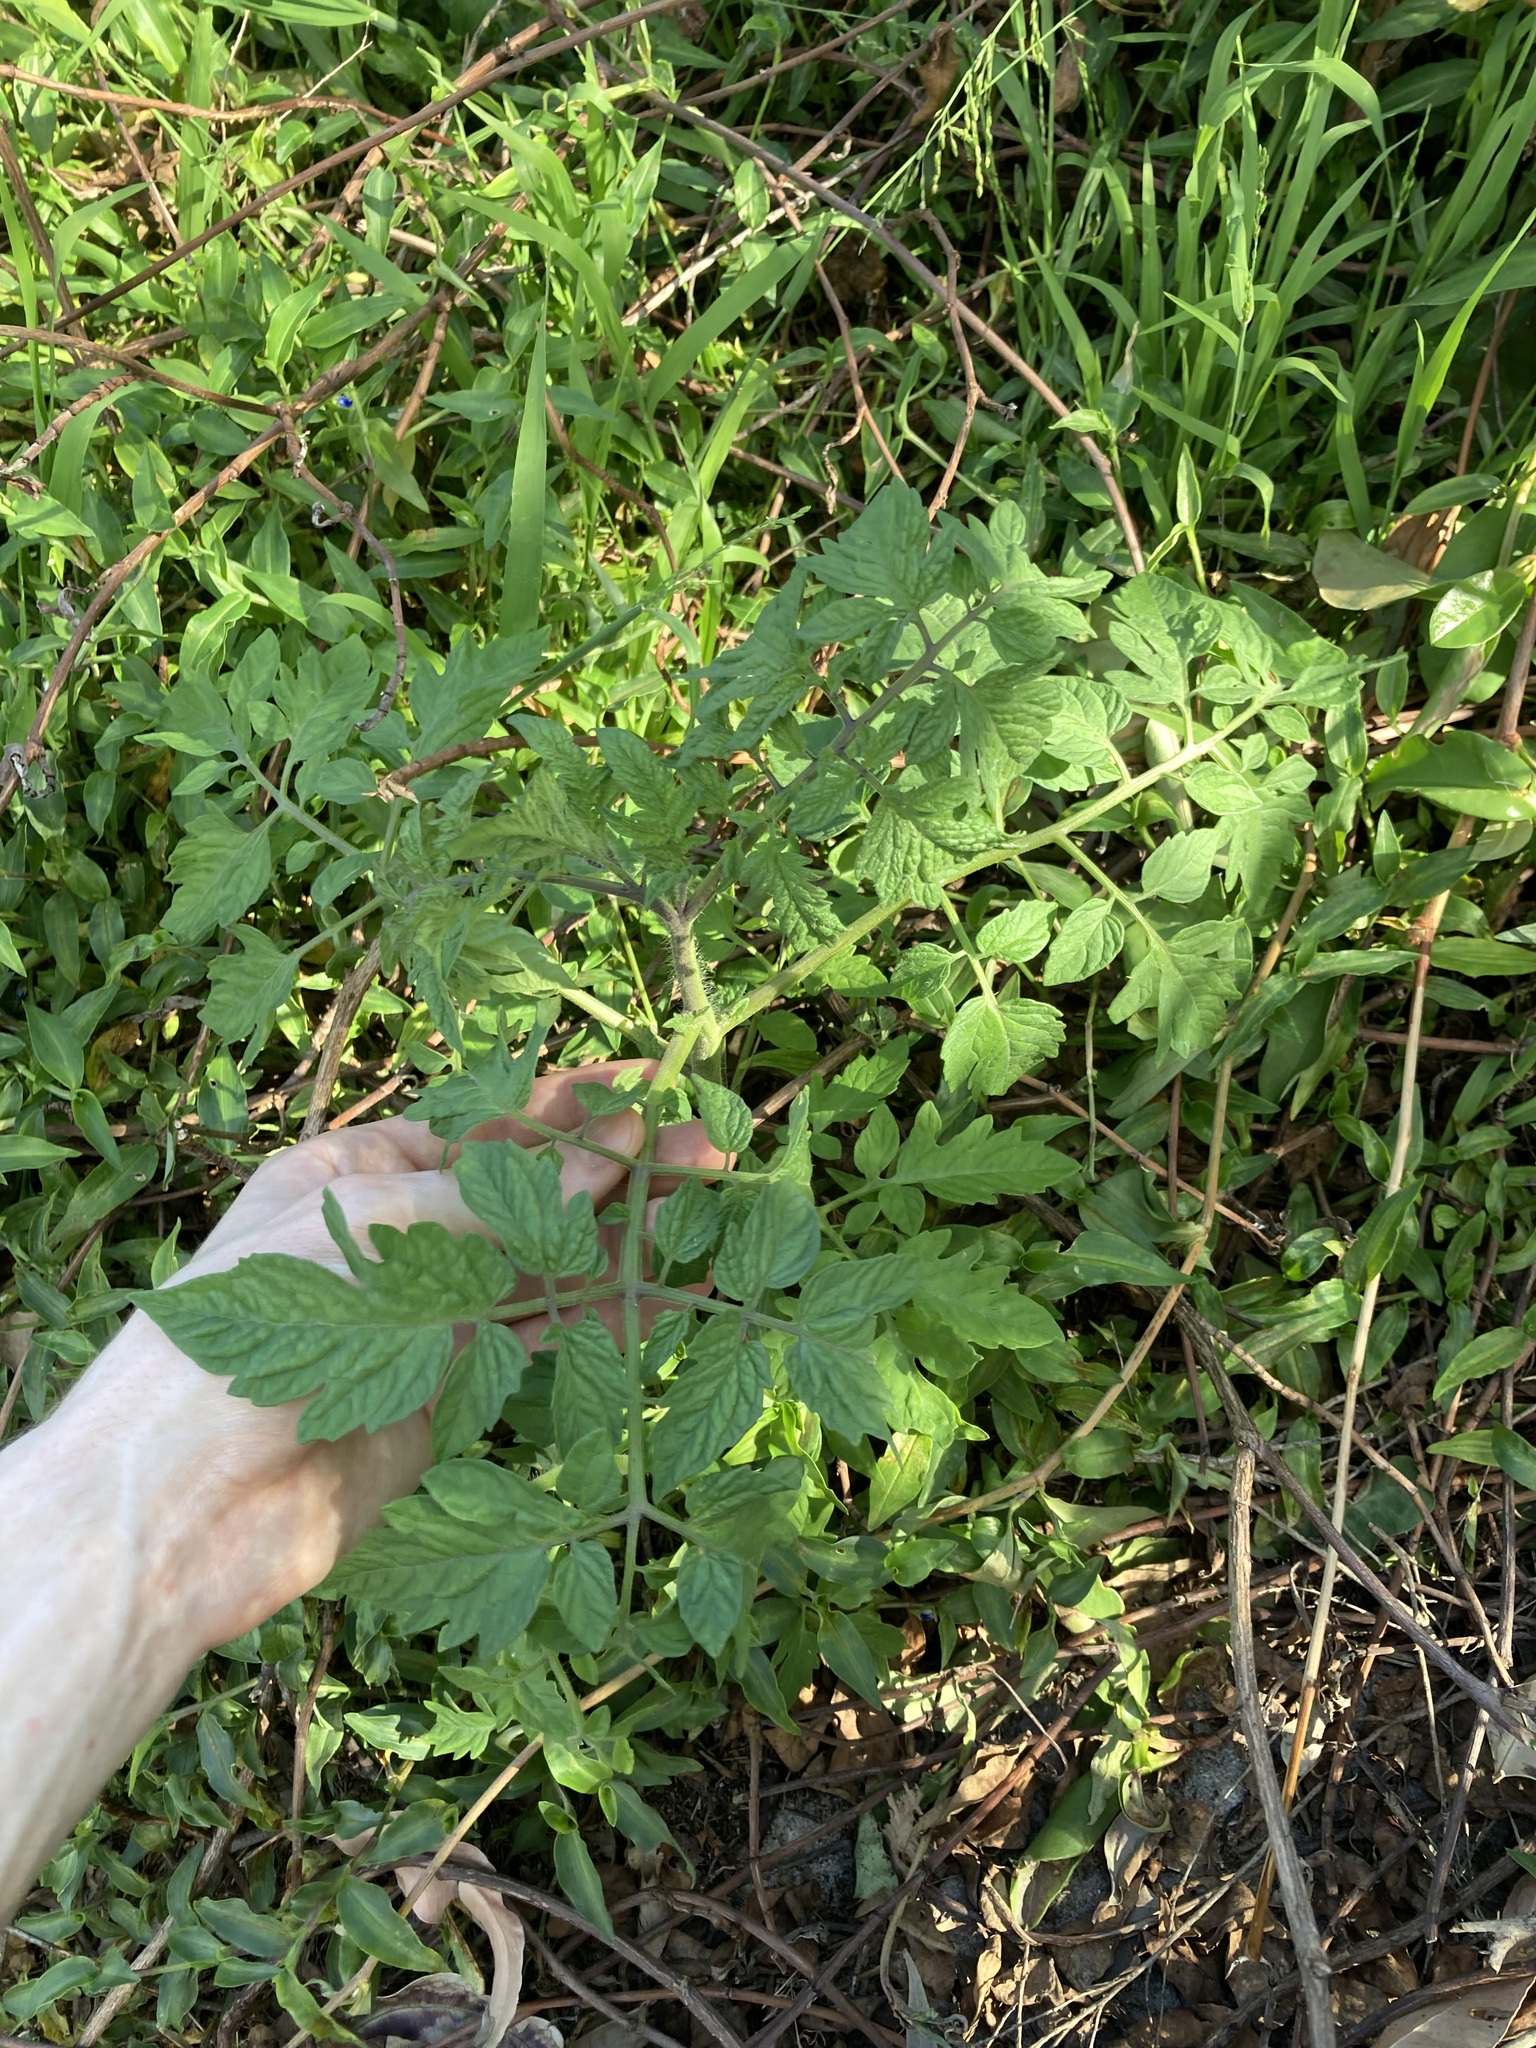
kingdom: Plantae
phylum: Tracheophyta
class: Magnoliopsida
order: Solanales
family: Solanaceae
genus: Solanum
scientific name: Solanum lycopersicum
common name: Garden tomato
